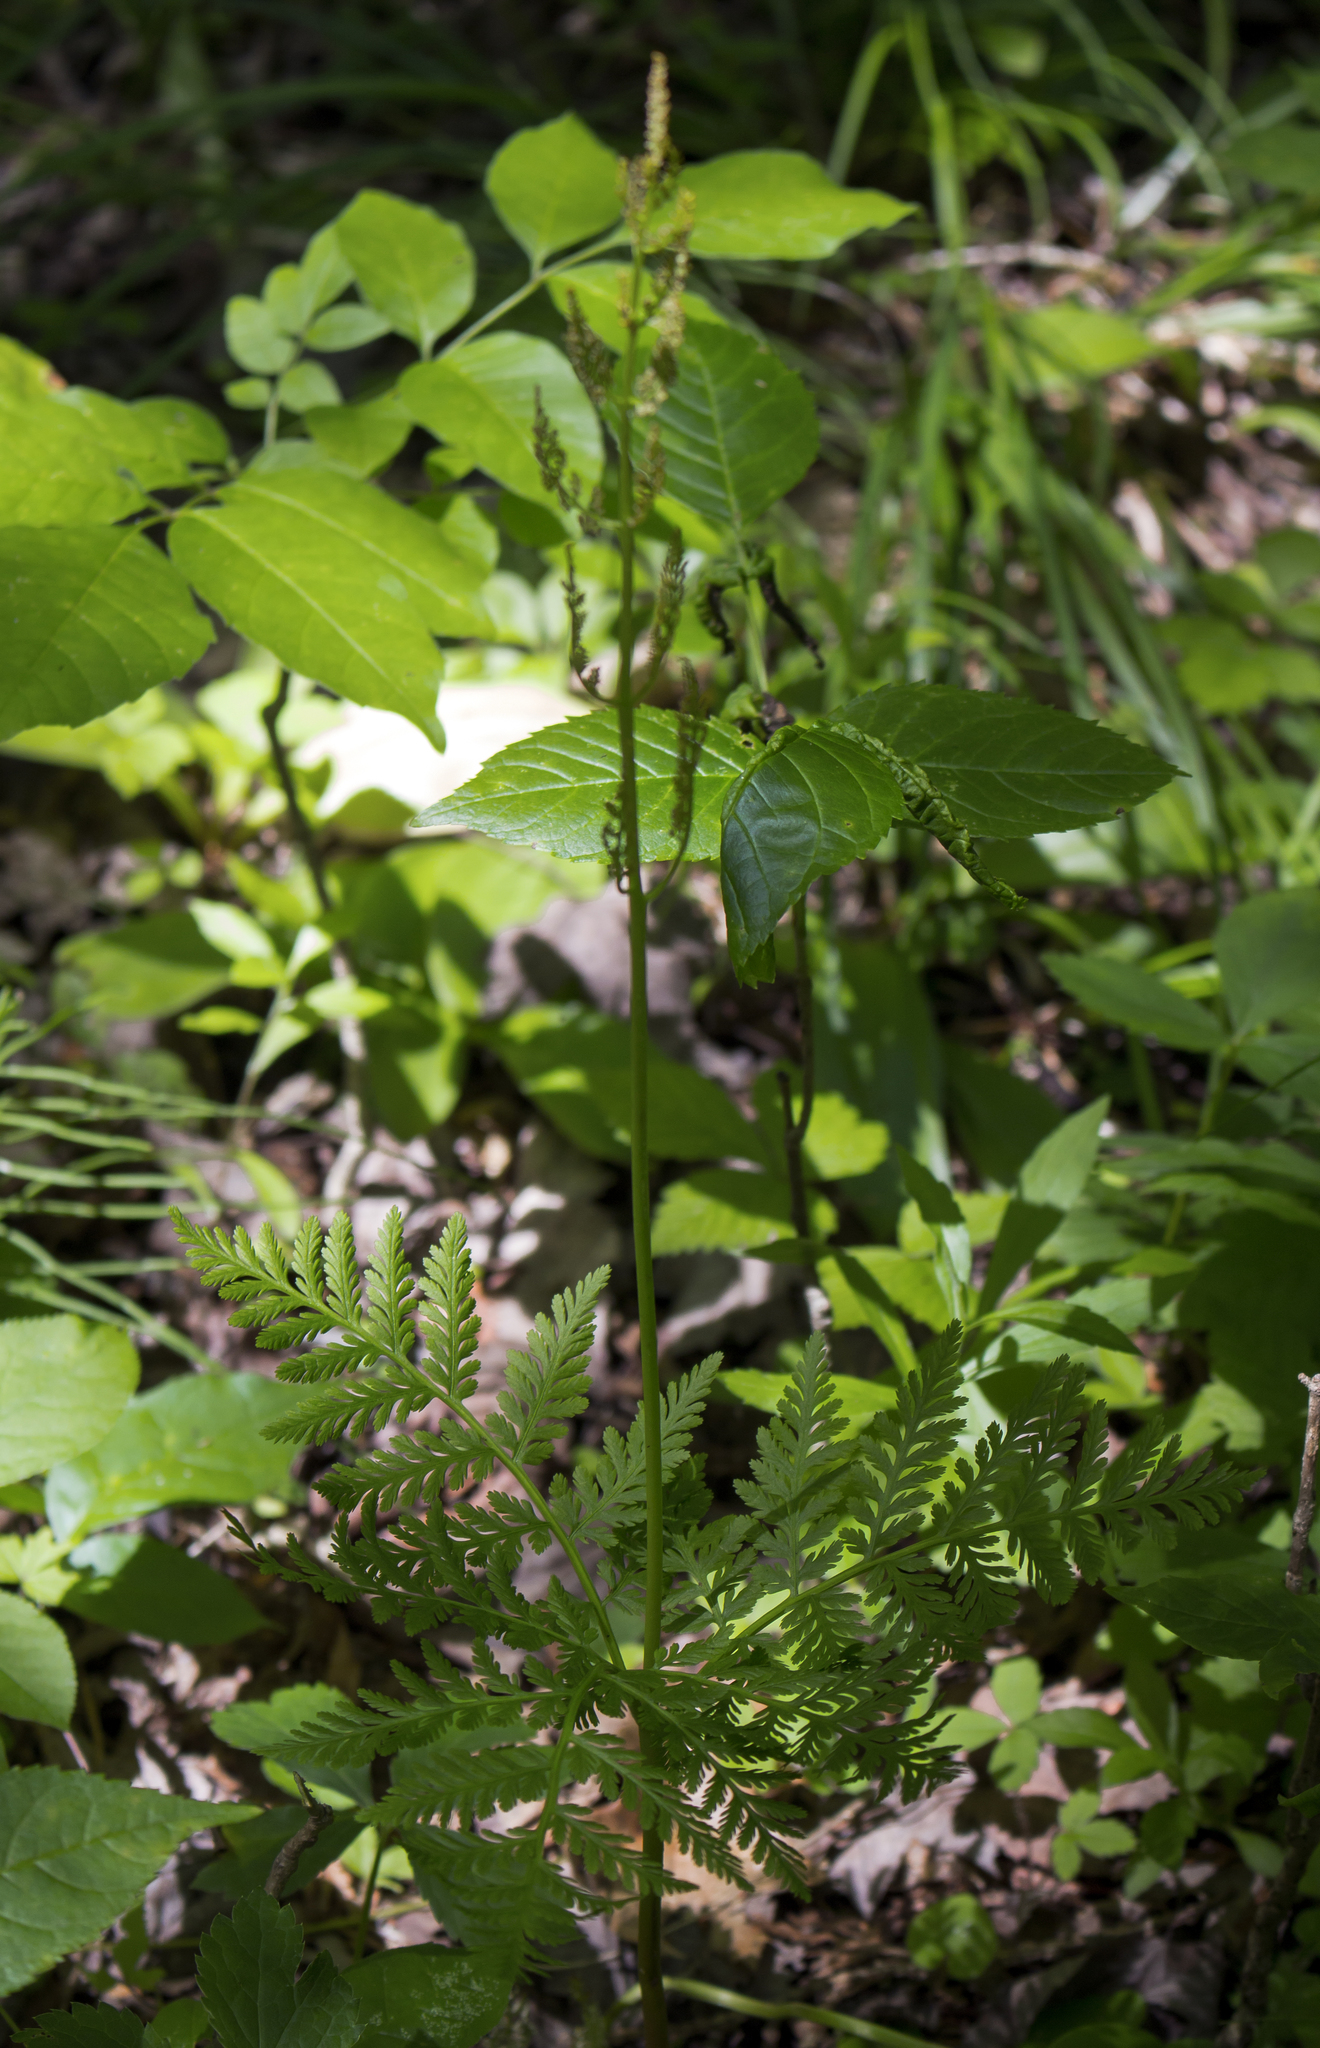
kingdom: Plantae
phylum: Tracheophyta
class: Polypodiopsida
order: Ophioglossales
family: Ophioglossaceae
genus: Botrypus
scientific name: Botrypus virginianus
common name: Common grapefern
